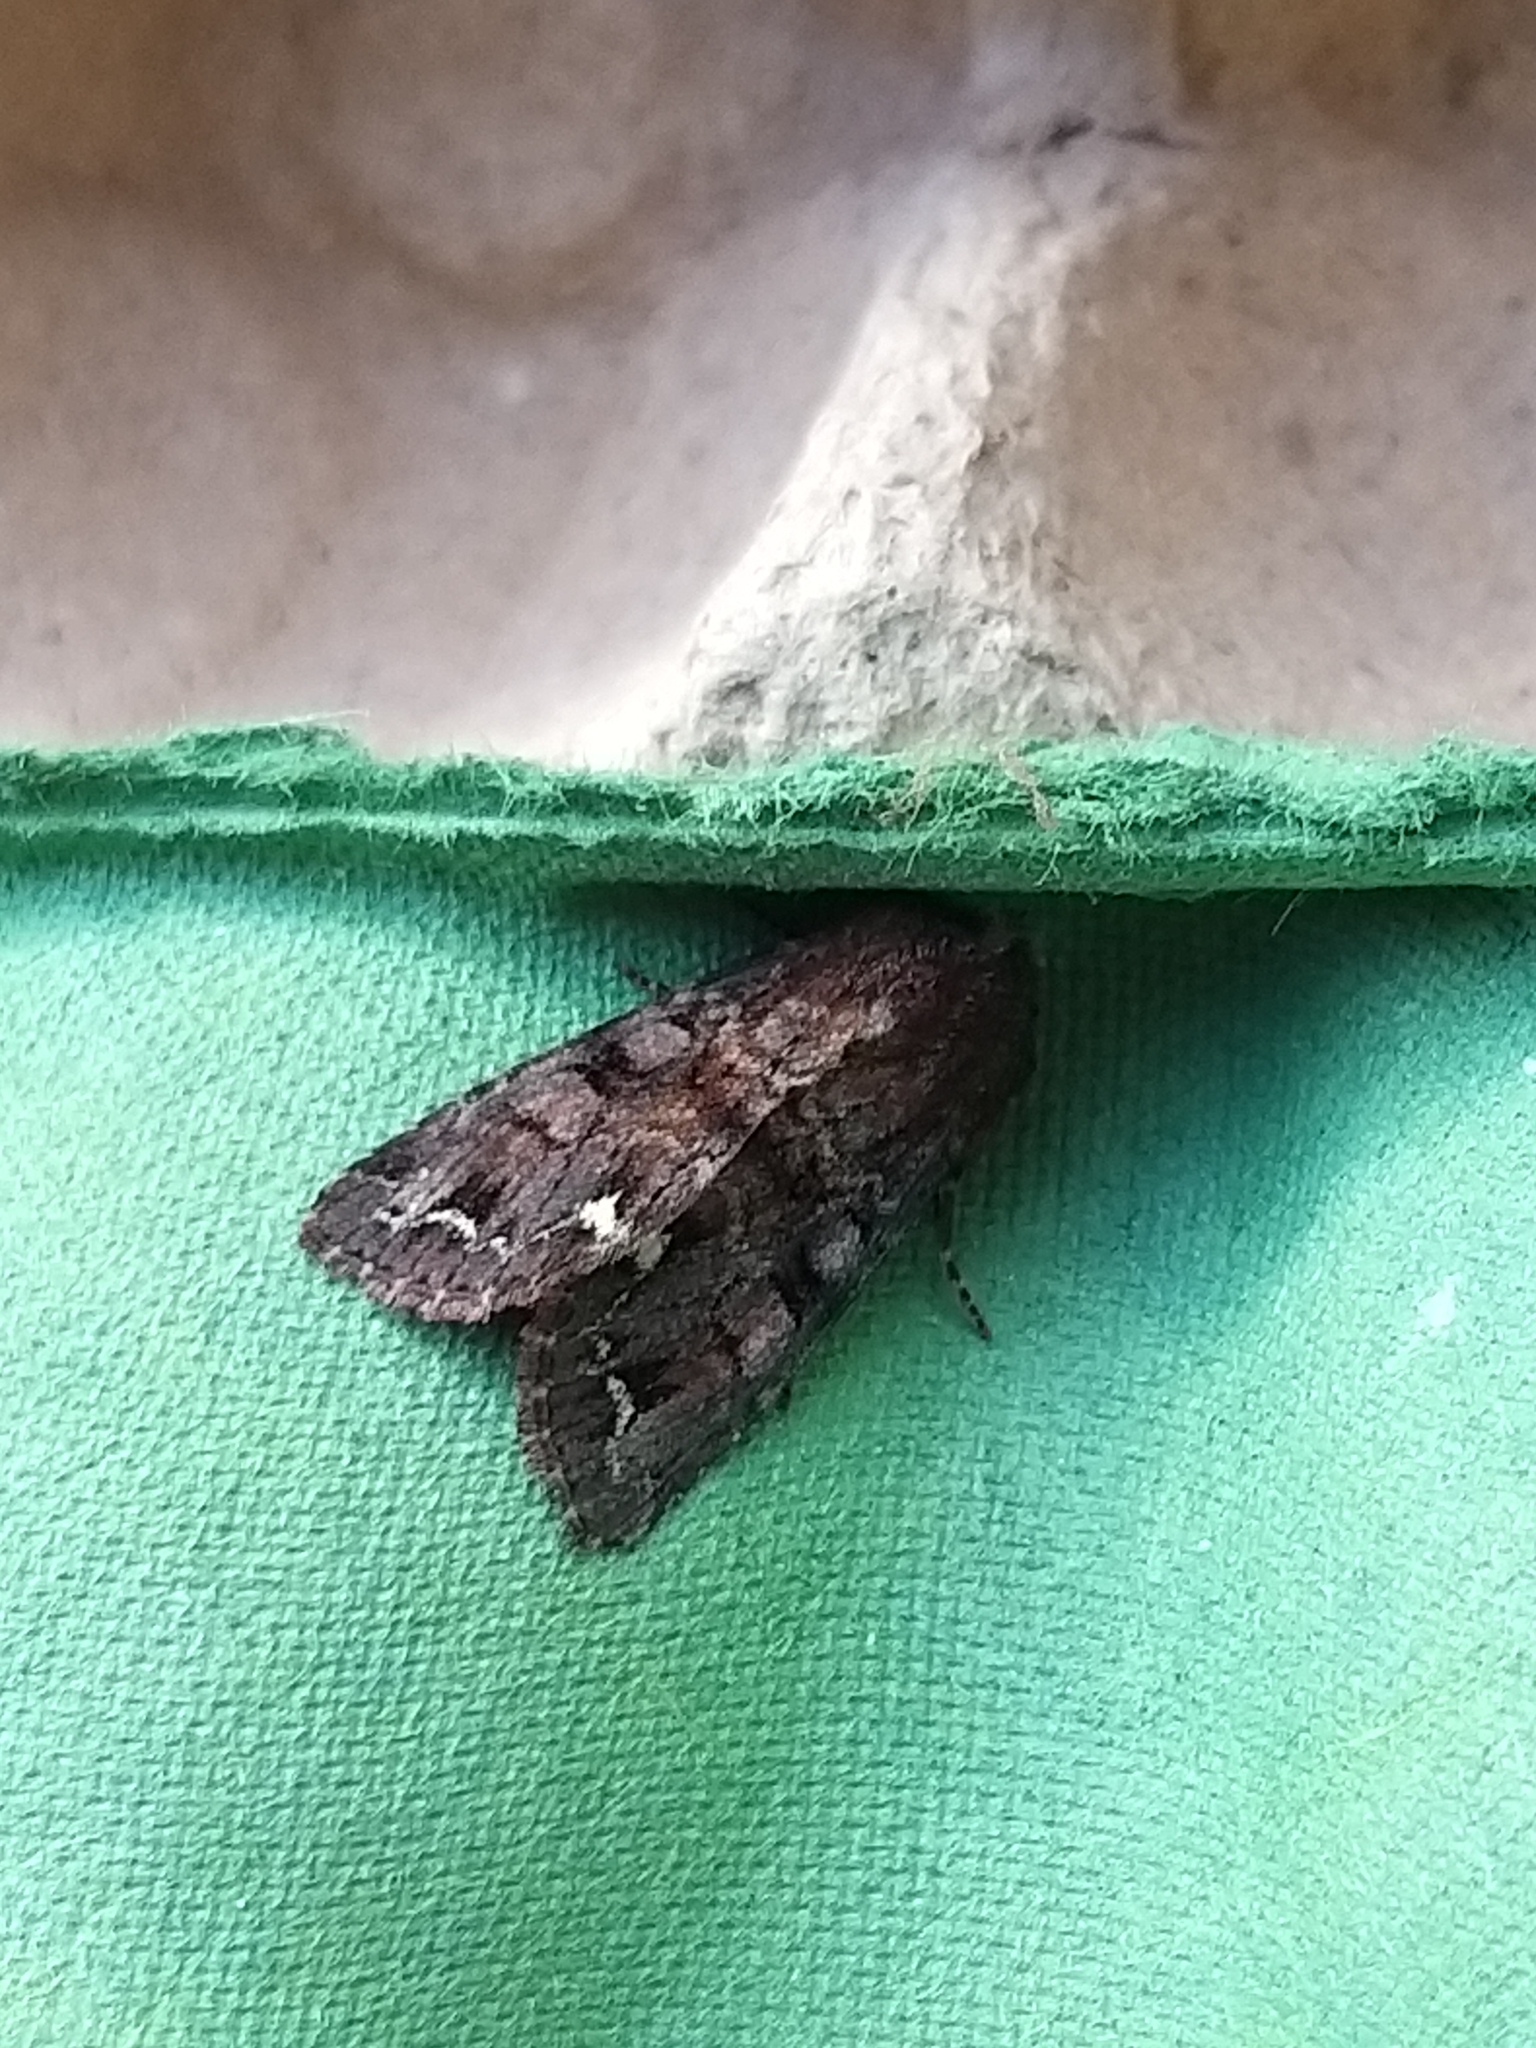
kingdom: Animalia
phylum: Arthropoda
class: Insecta
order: Lepidoptera
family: Noctuidae
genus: Ceramica
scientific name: Ceramica pisi
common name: Broom moth
